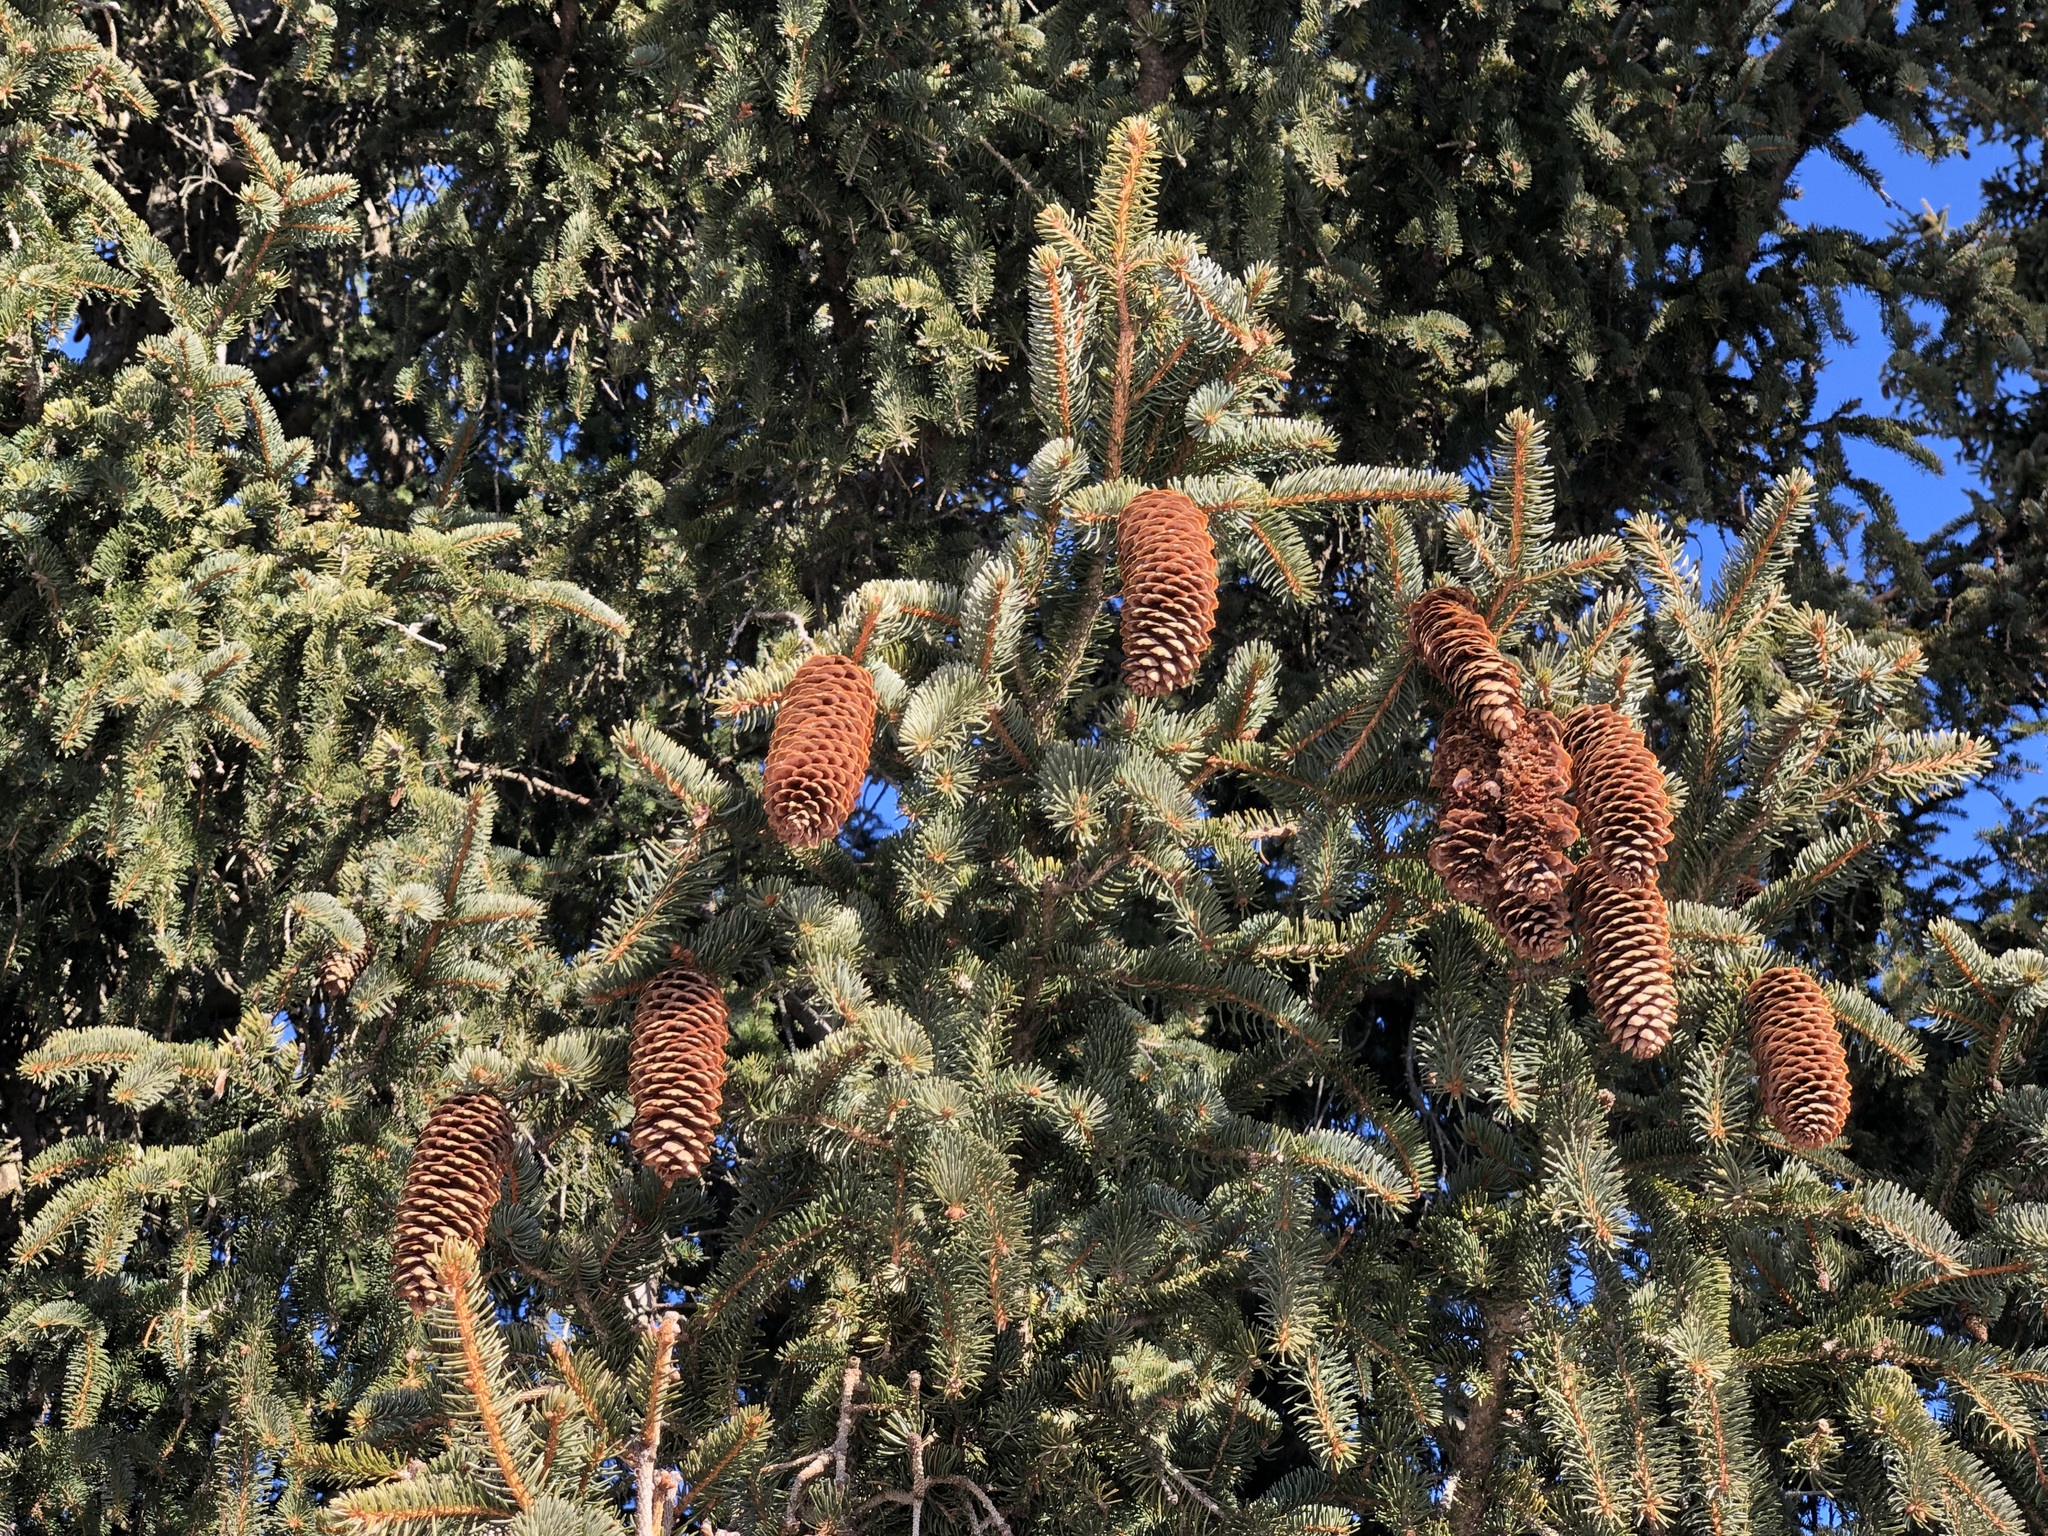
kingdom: Plantae
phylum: Tracheophyta
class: Pinopsida
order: Pinales
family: Pinaceae
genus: Picea
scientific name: Picea abies
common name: Norway spruce
